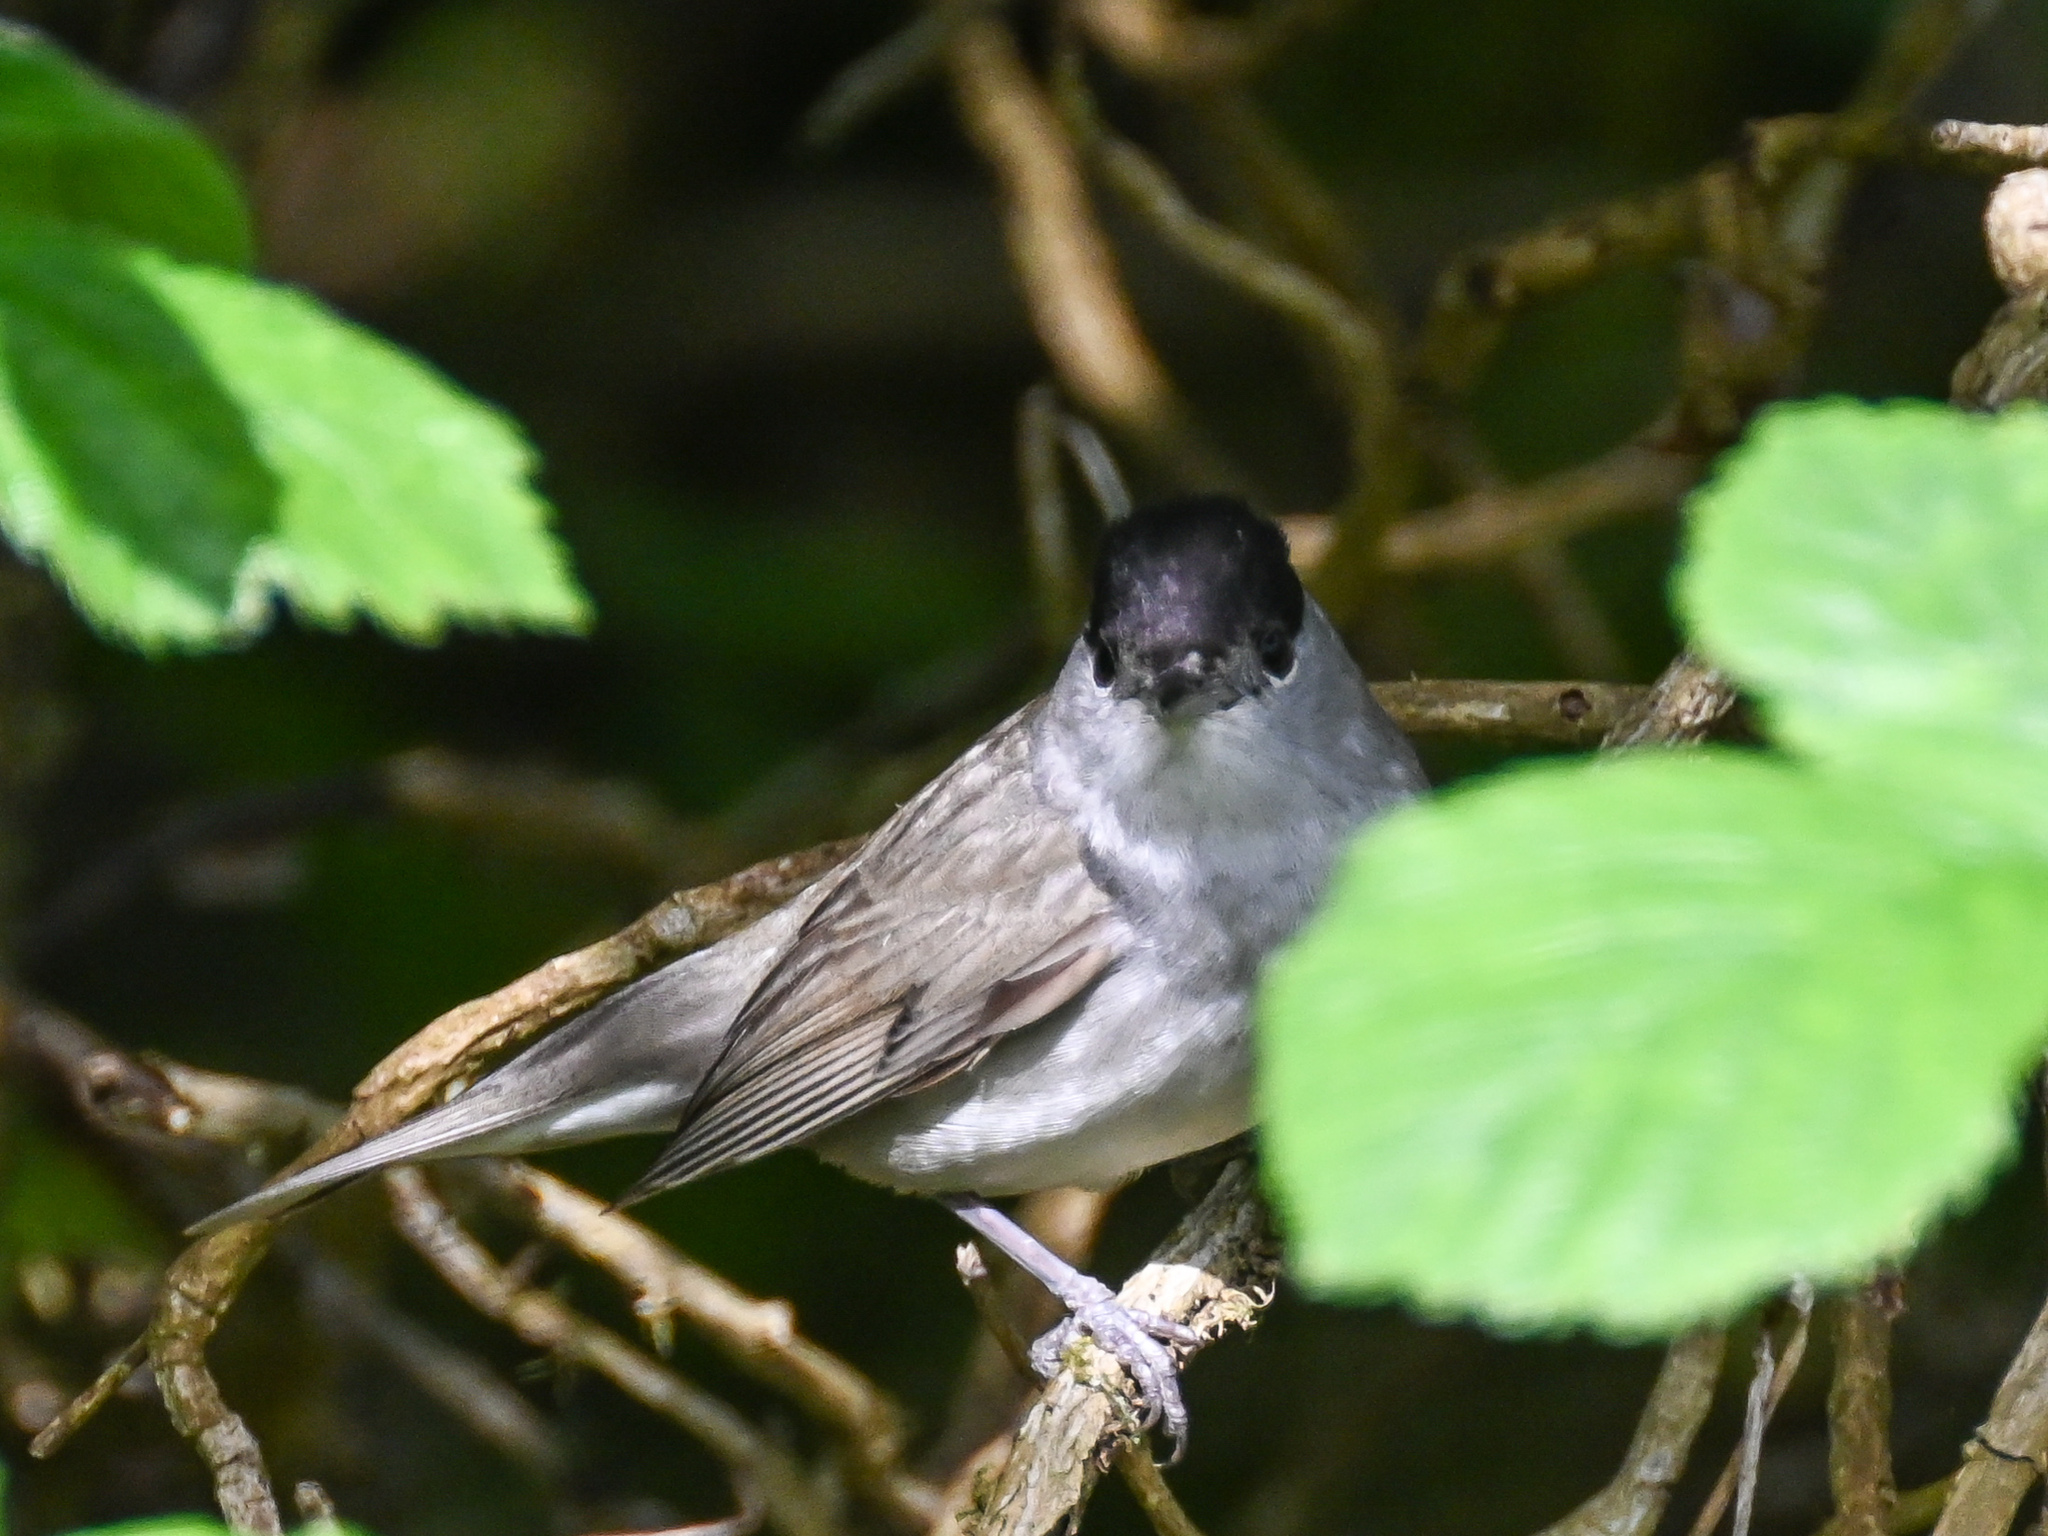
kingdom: Animalia
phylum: Chordata
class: Aves
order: Passeriformes
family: Sylviidae
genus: Sylvia
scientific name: Sylvia atricapilla
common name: Eurasian blackcap
